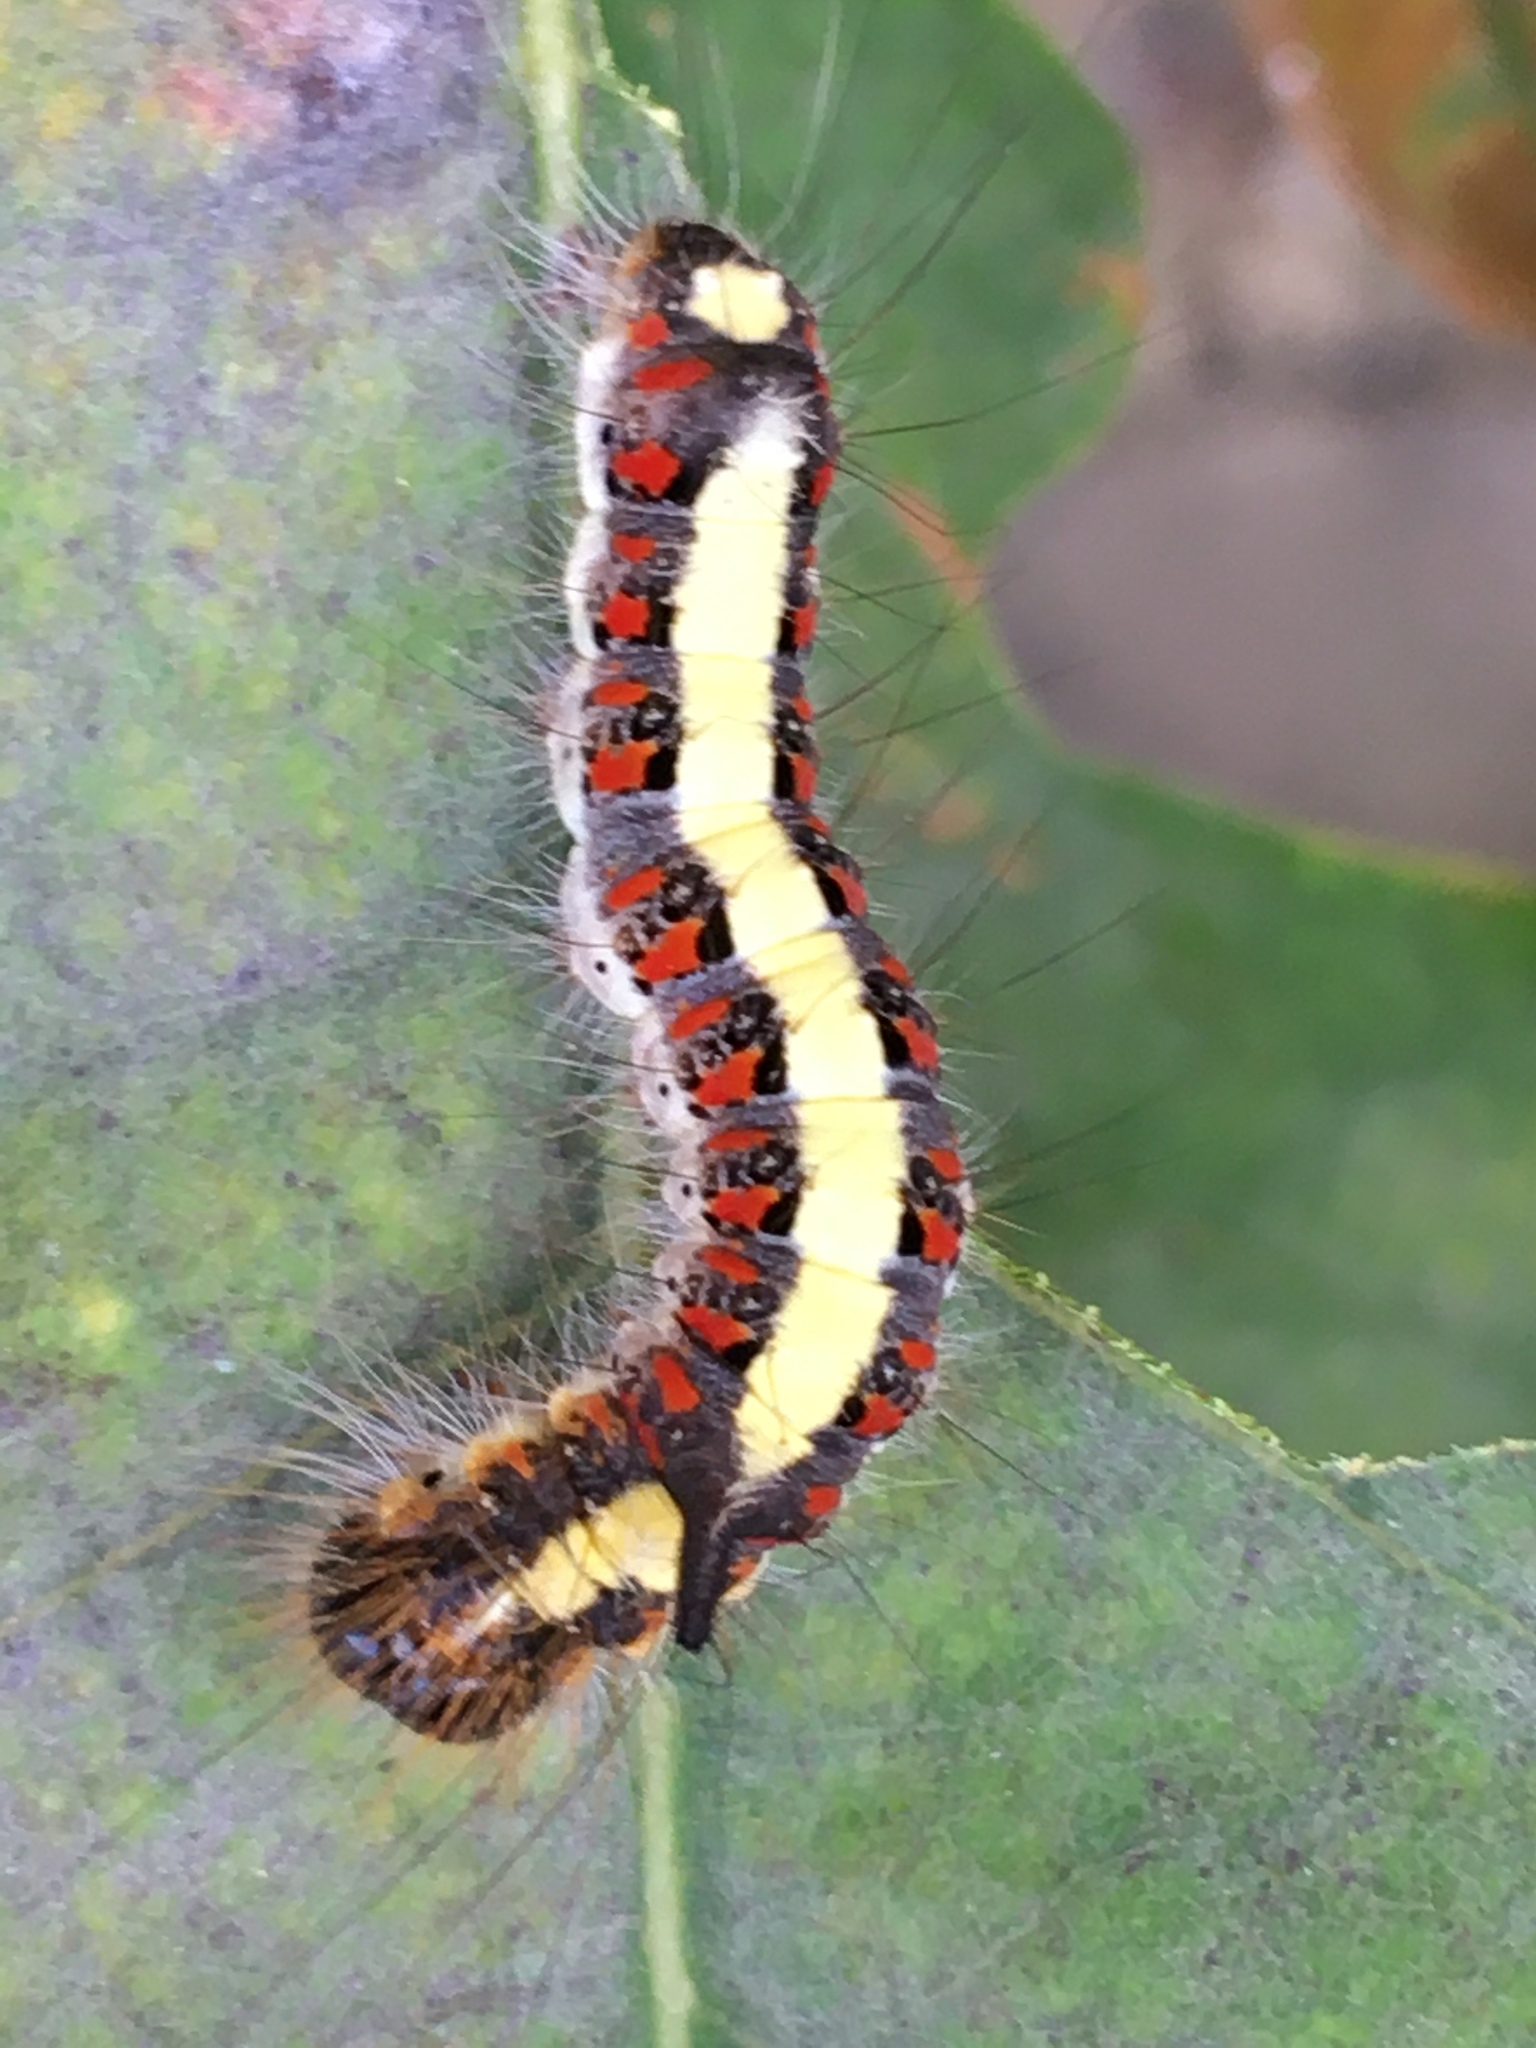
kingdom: Animalia
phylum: Arthropoda
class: Insecta
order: Lepidoptera
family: Noctuidae
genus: Acronicta
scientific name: Acronicta psi
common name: Grey dagger
